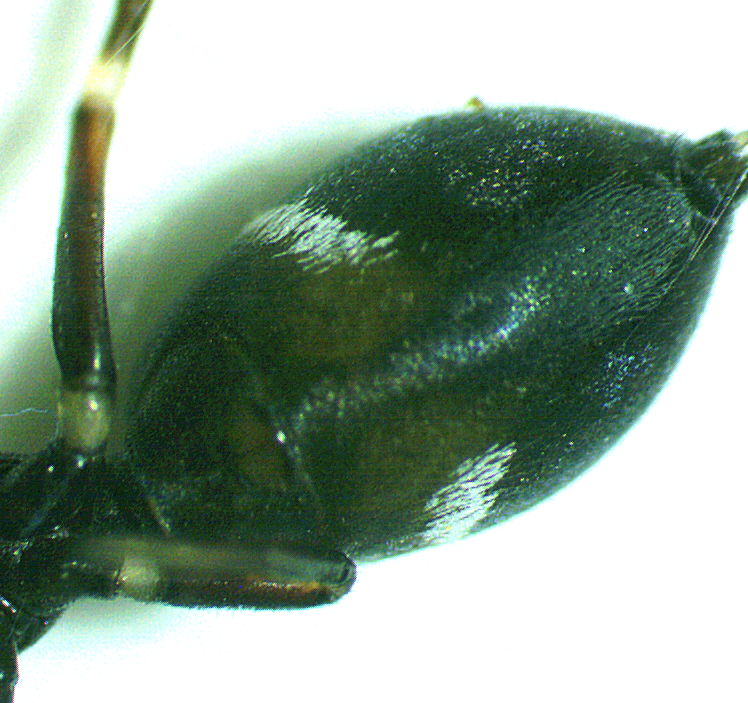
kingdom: Animalia
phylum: Arthropoda
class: Arachnida
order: Araneae
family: Salticidae
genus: Peckhamia
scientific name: Peckhamia americana
